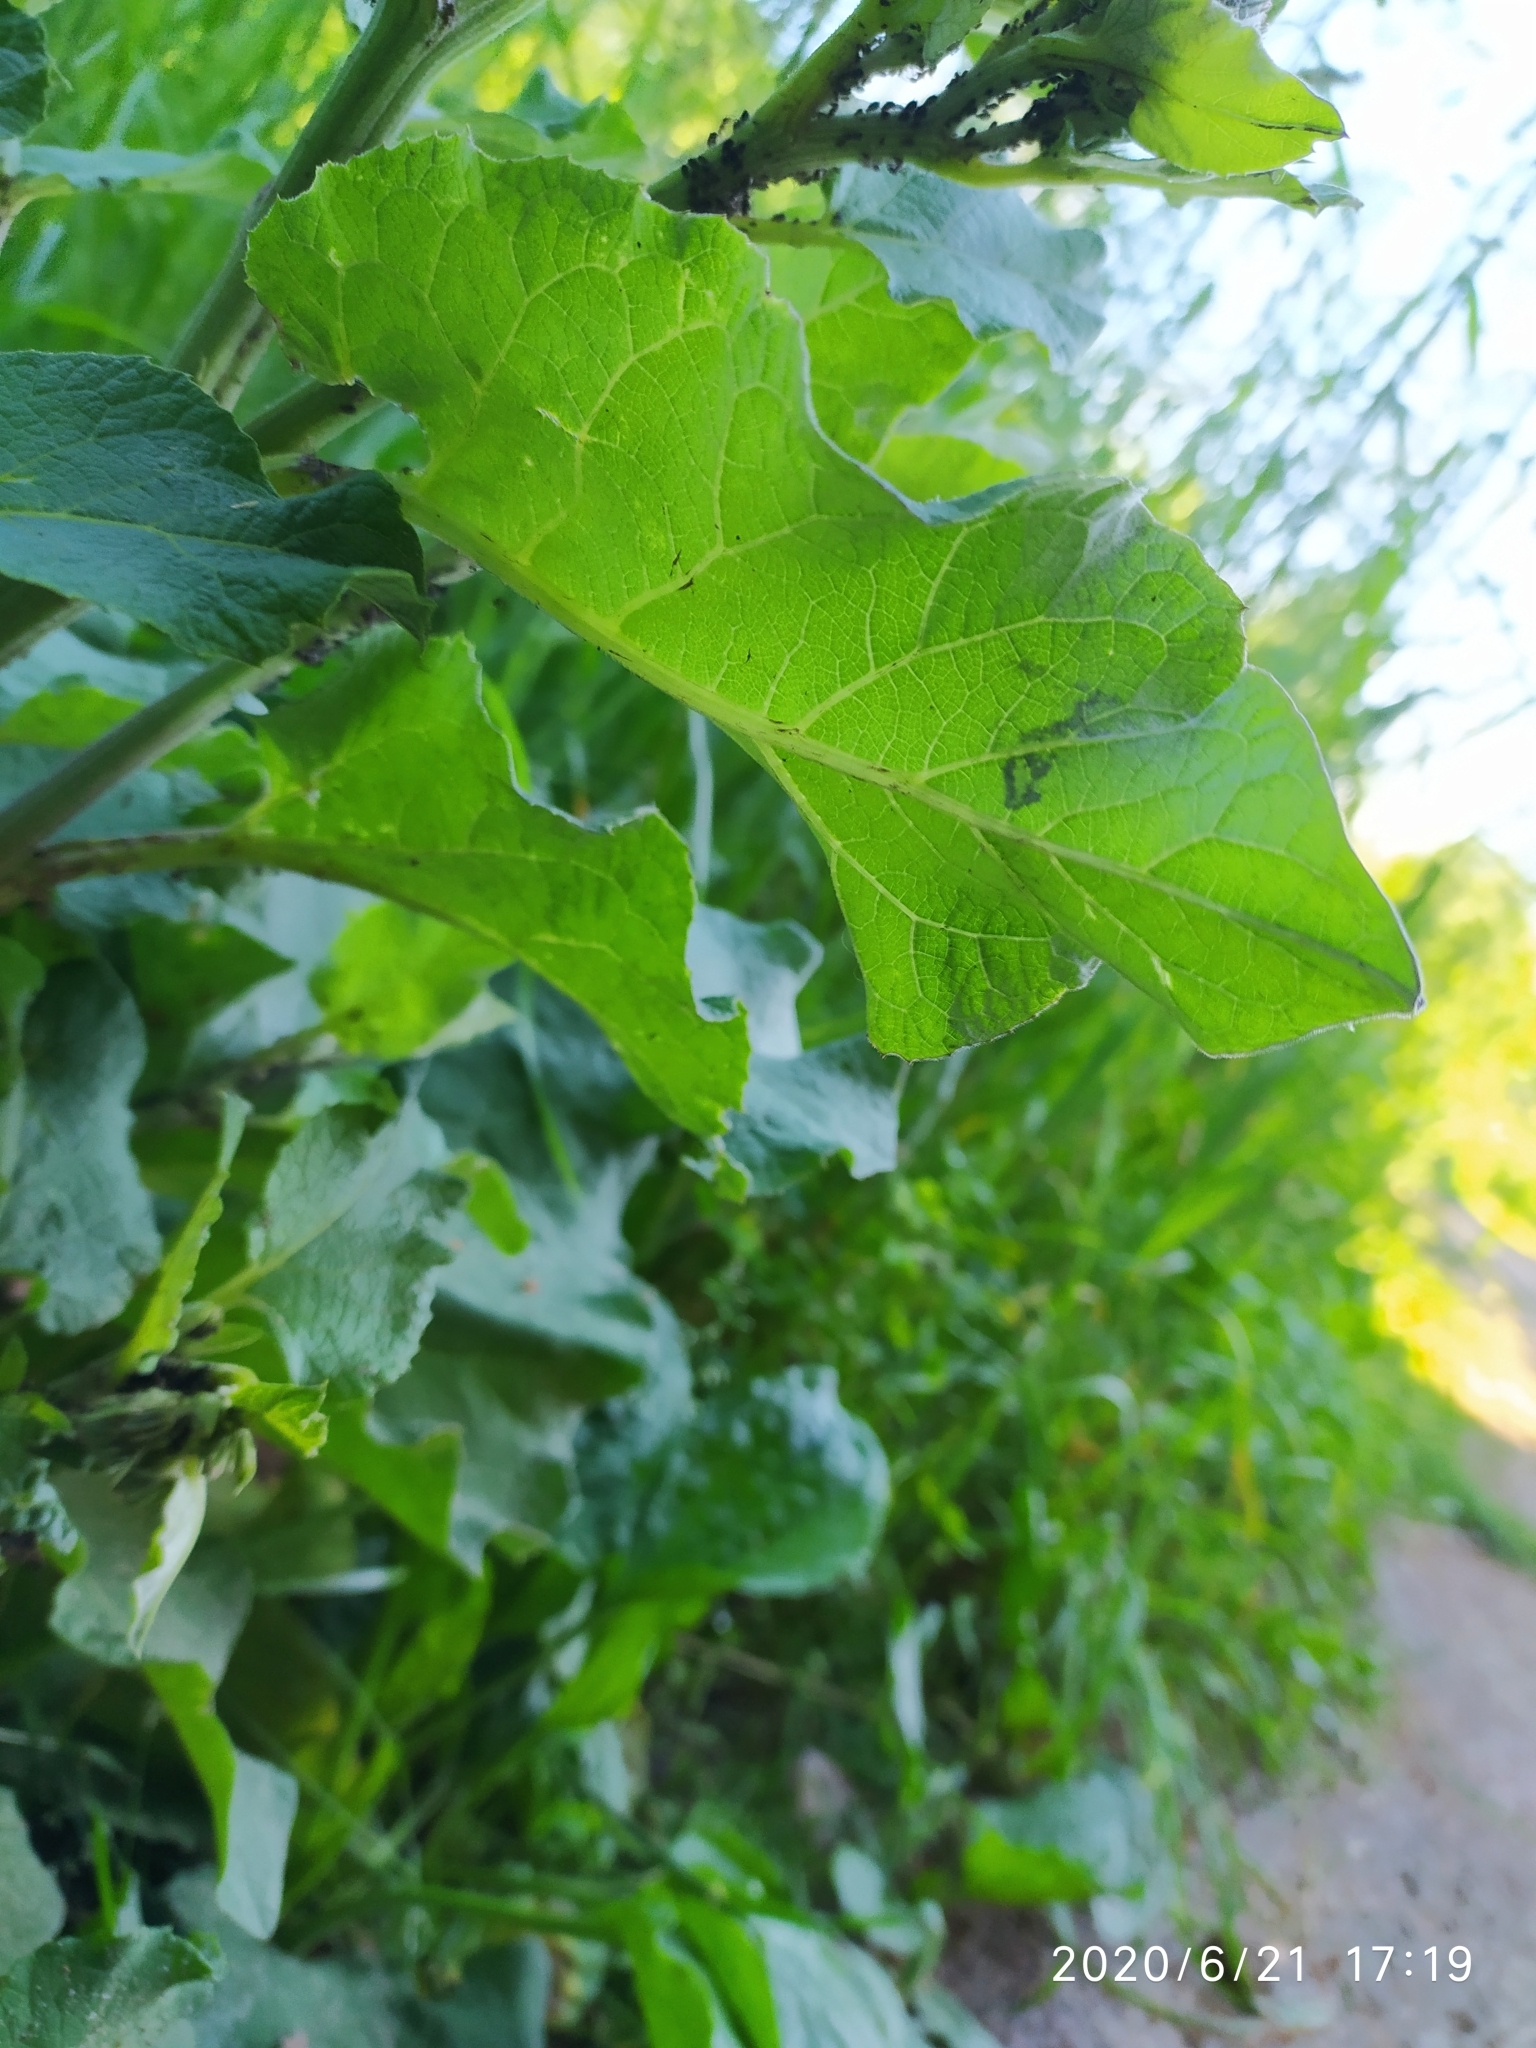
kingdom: Plantae
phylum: Tracheophyta
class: Magnoliopsida
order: Asterales
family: Asteraceae
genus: Arctium
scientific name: Arctium tomentosum
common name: Woolly burdock
